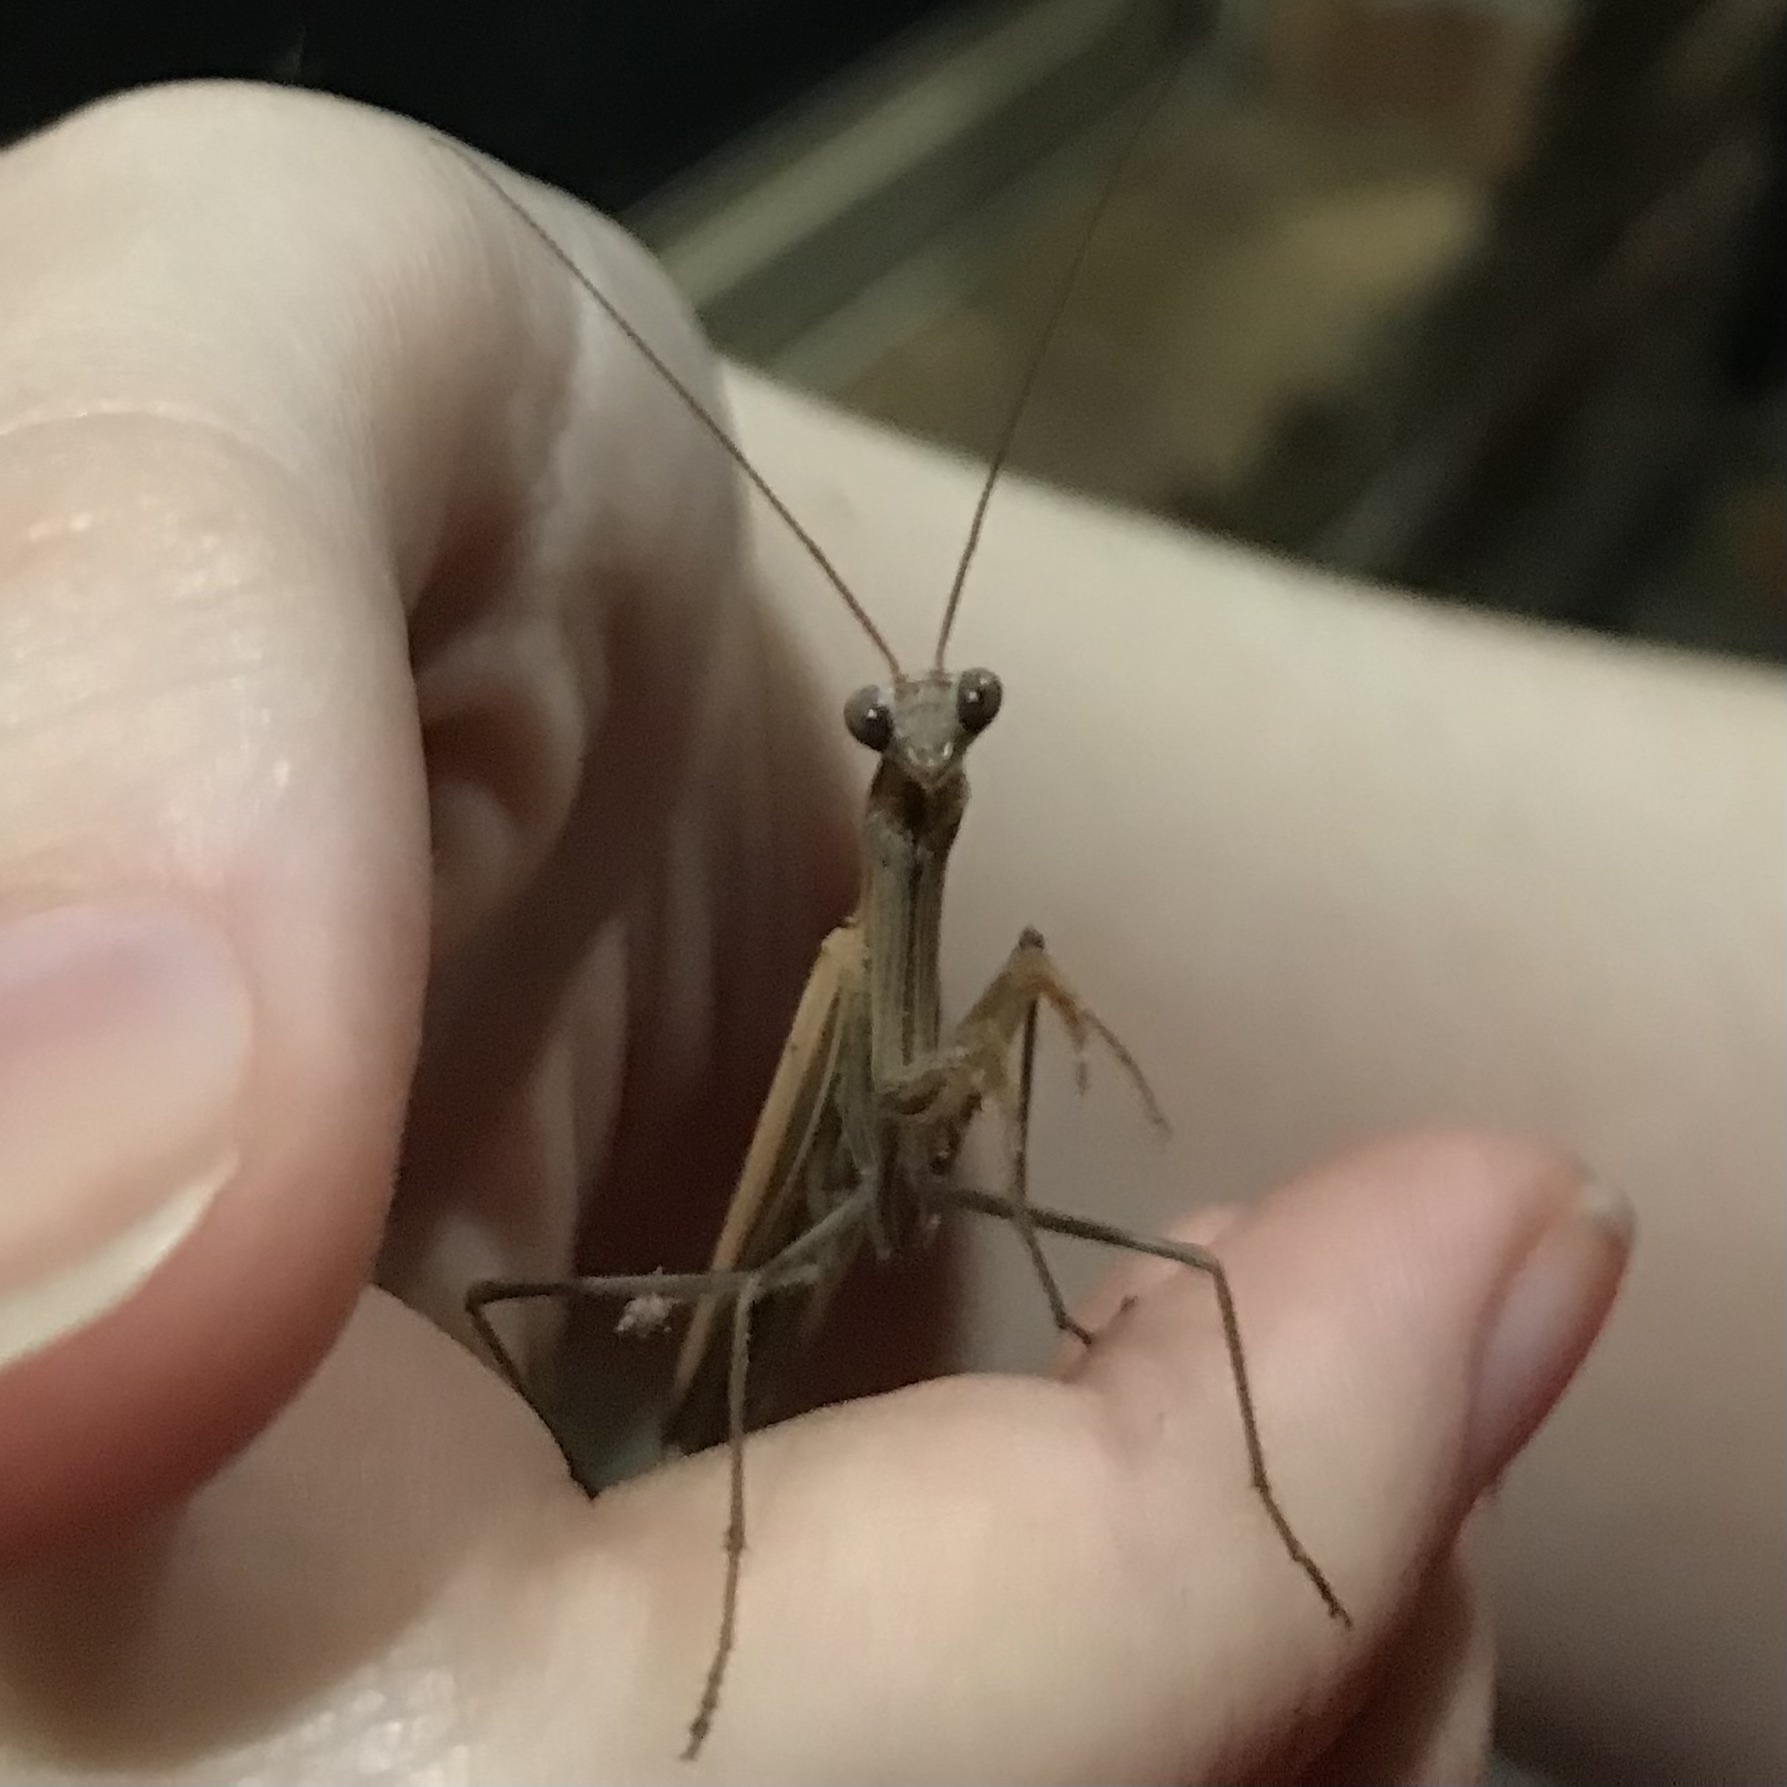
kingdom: Animalia
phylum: Arthropoda
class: Insecta
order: Mantodea
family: Mantidae
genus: Mantis
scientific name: Mantis octospilota
